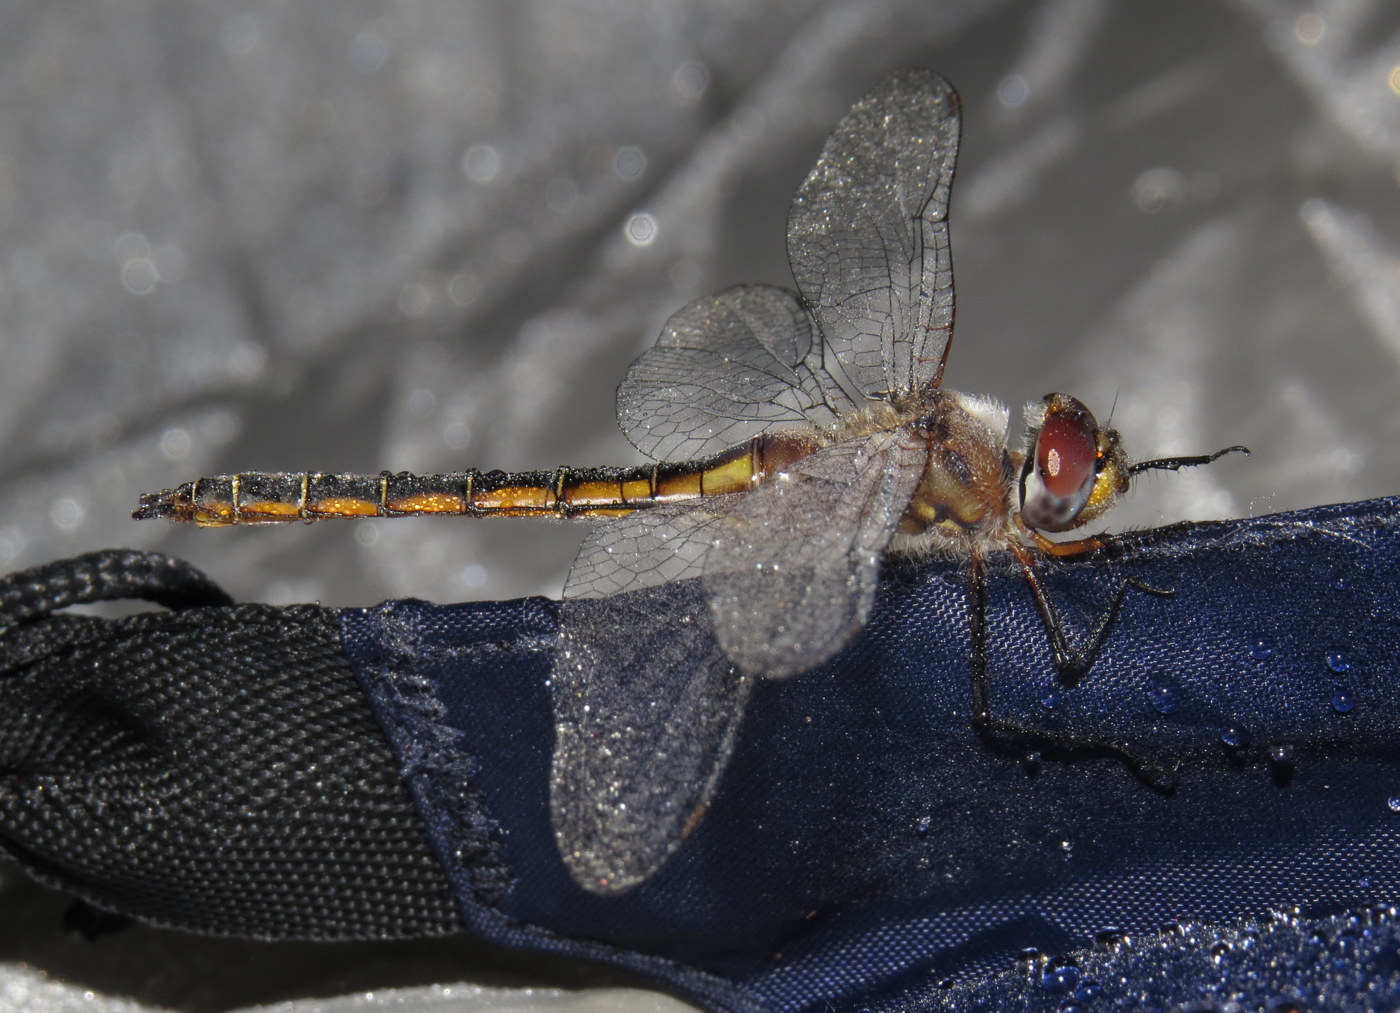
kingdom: Animalia
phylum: Arthropoda
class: Insecta
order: Odonata
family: Corduliidae
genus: Epitheca
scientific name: Epitheca stella
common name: Florida baskettail
